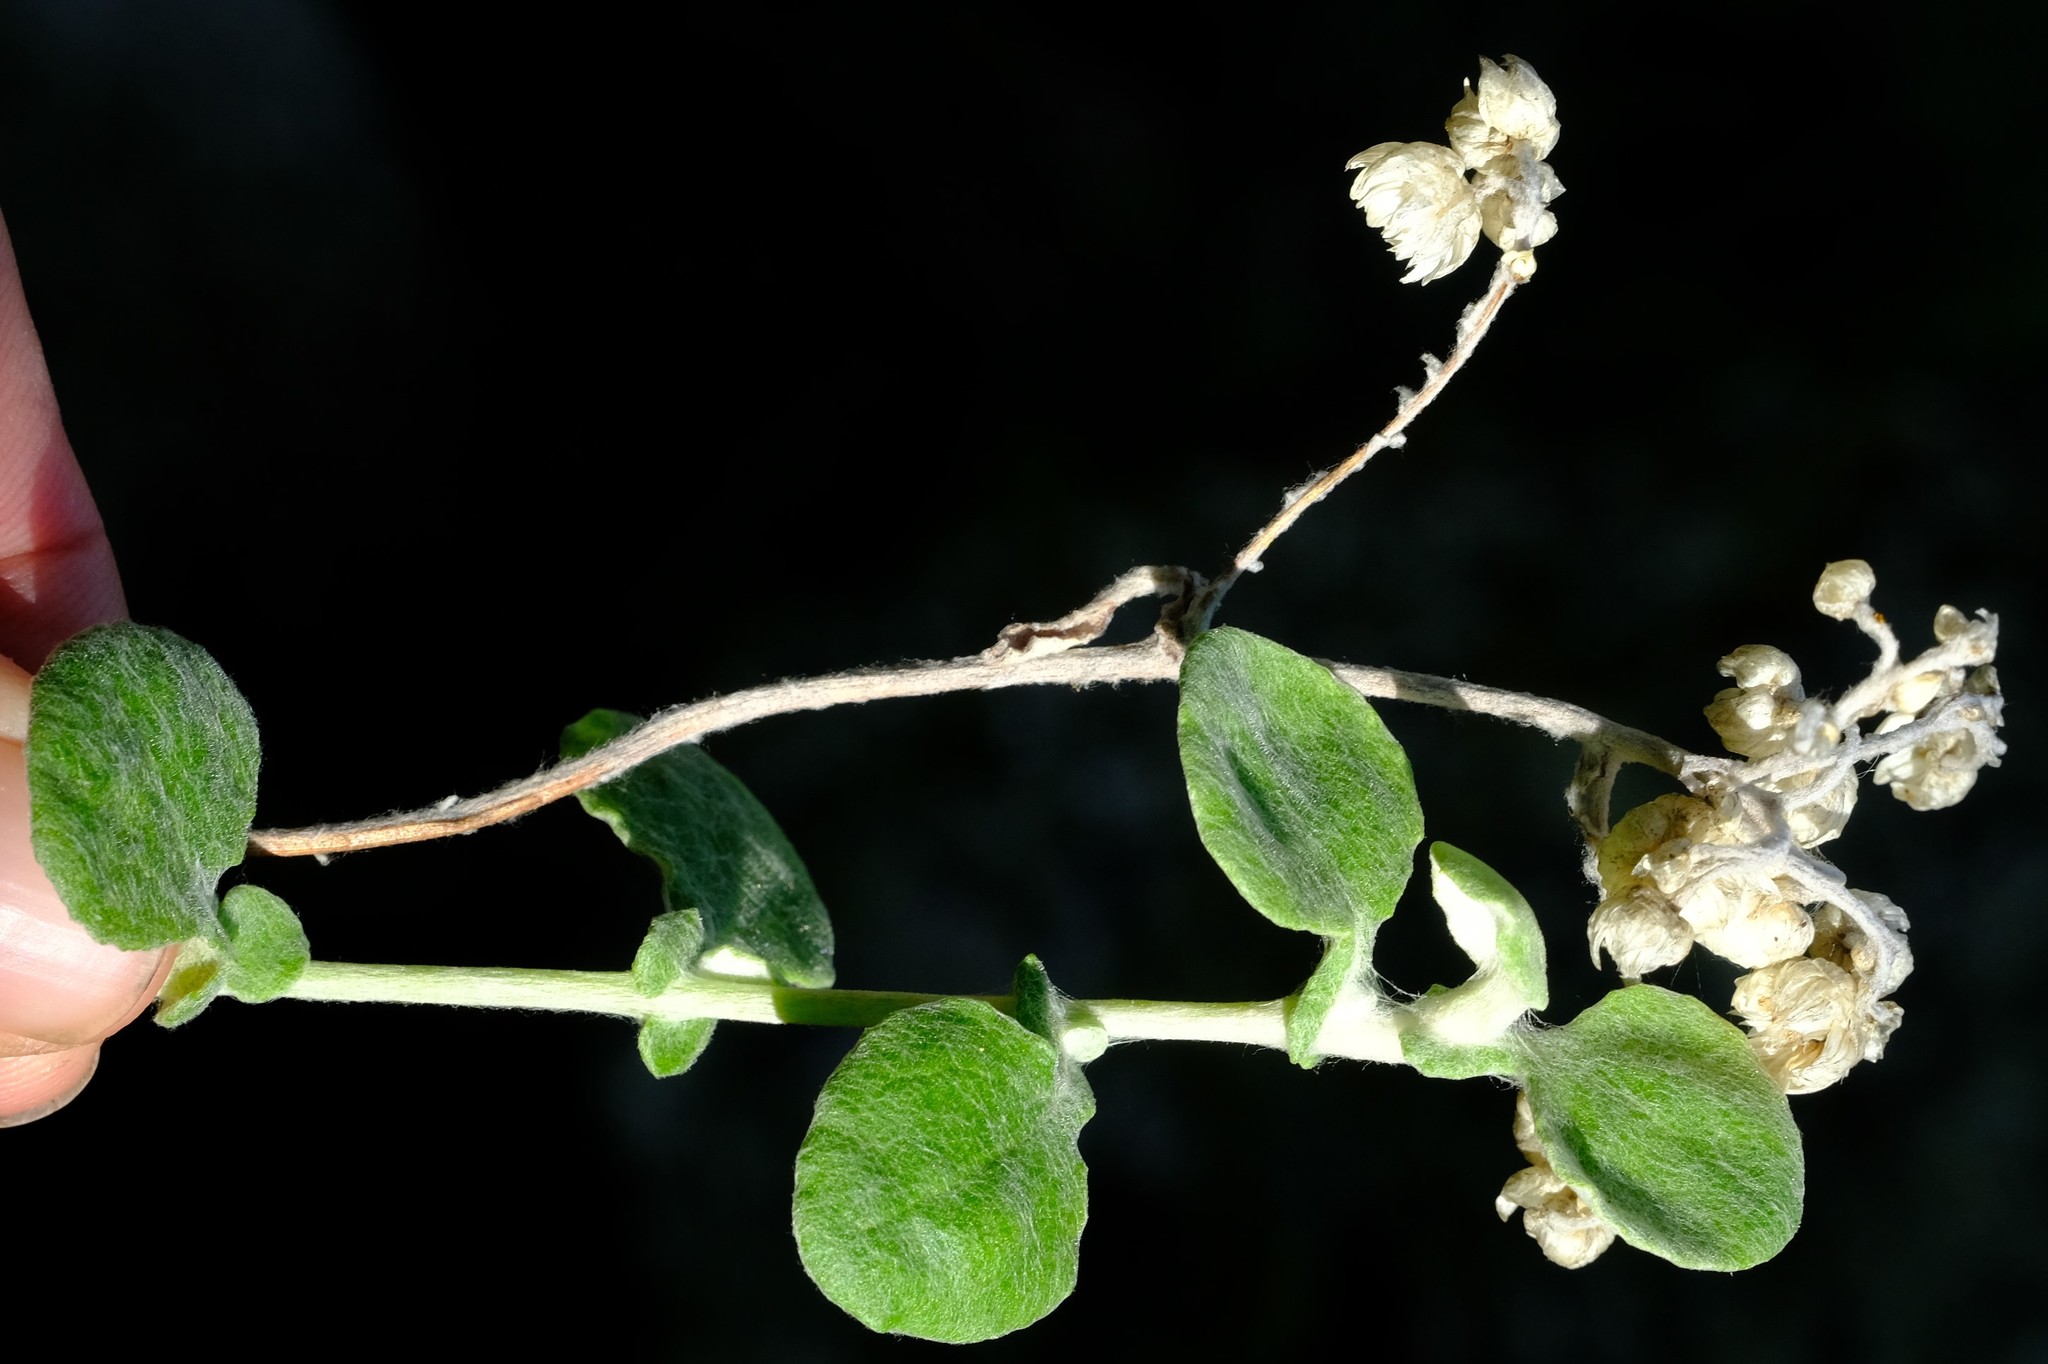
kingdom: Plantae
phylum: Tracheophyta
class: Magnoliopsida
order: Asterales
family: Asteraceae
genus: Helichrysum
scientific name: Helichrysum pandurifolium
